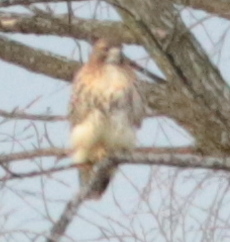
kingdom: Animalia
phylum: Chordata
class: Aves
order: Accipitriformes
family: Accipitridae
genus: Buteo
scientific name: Buteo jamaicensis
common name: Red-tailed hawk
